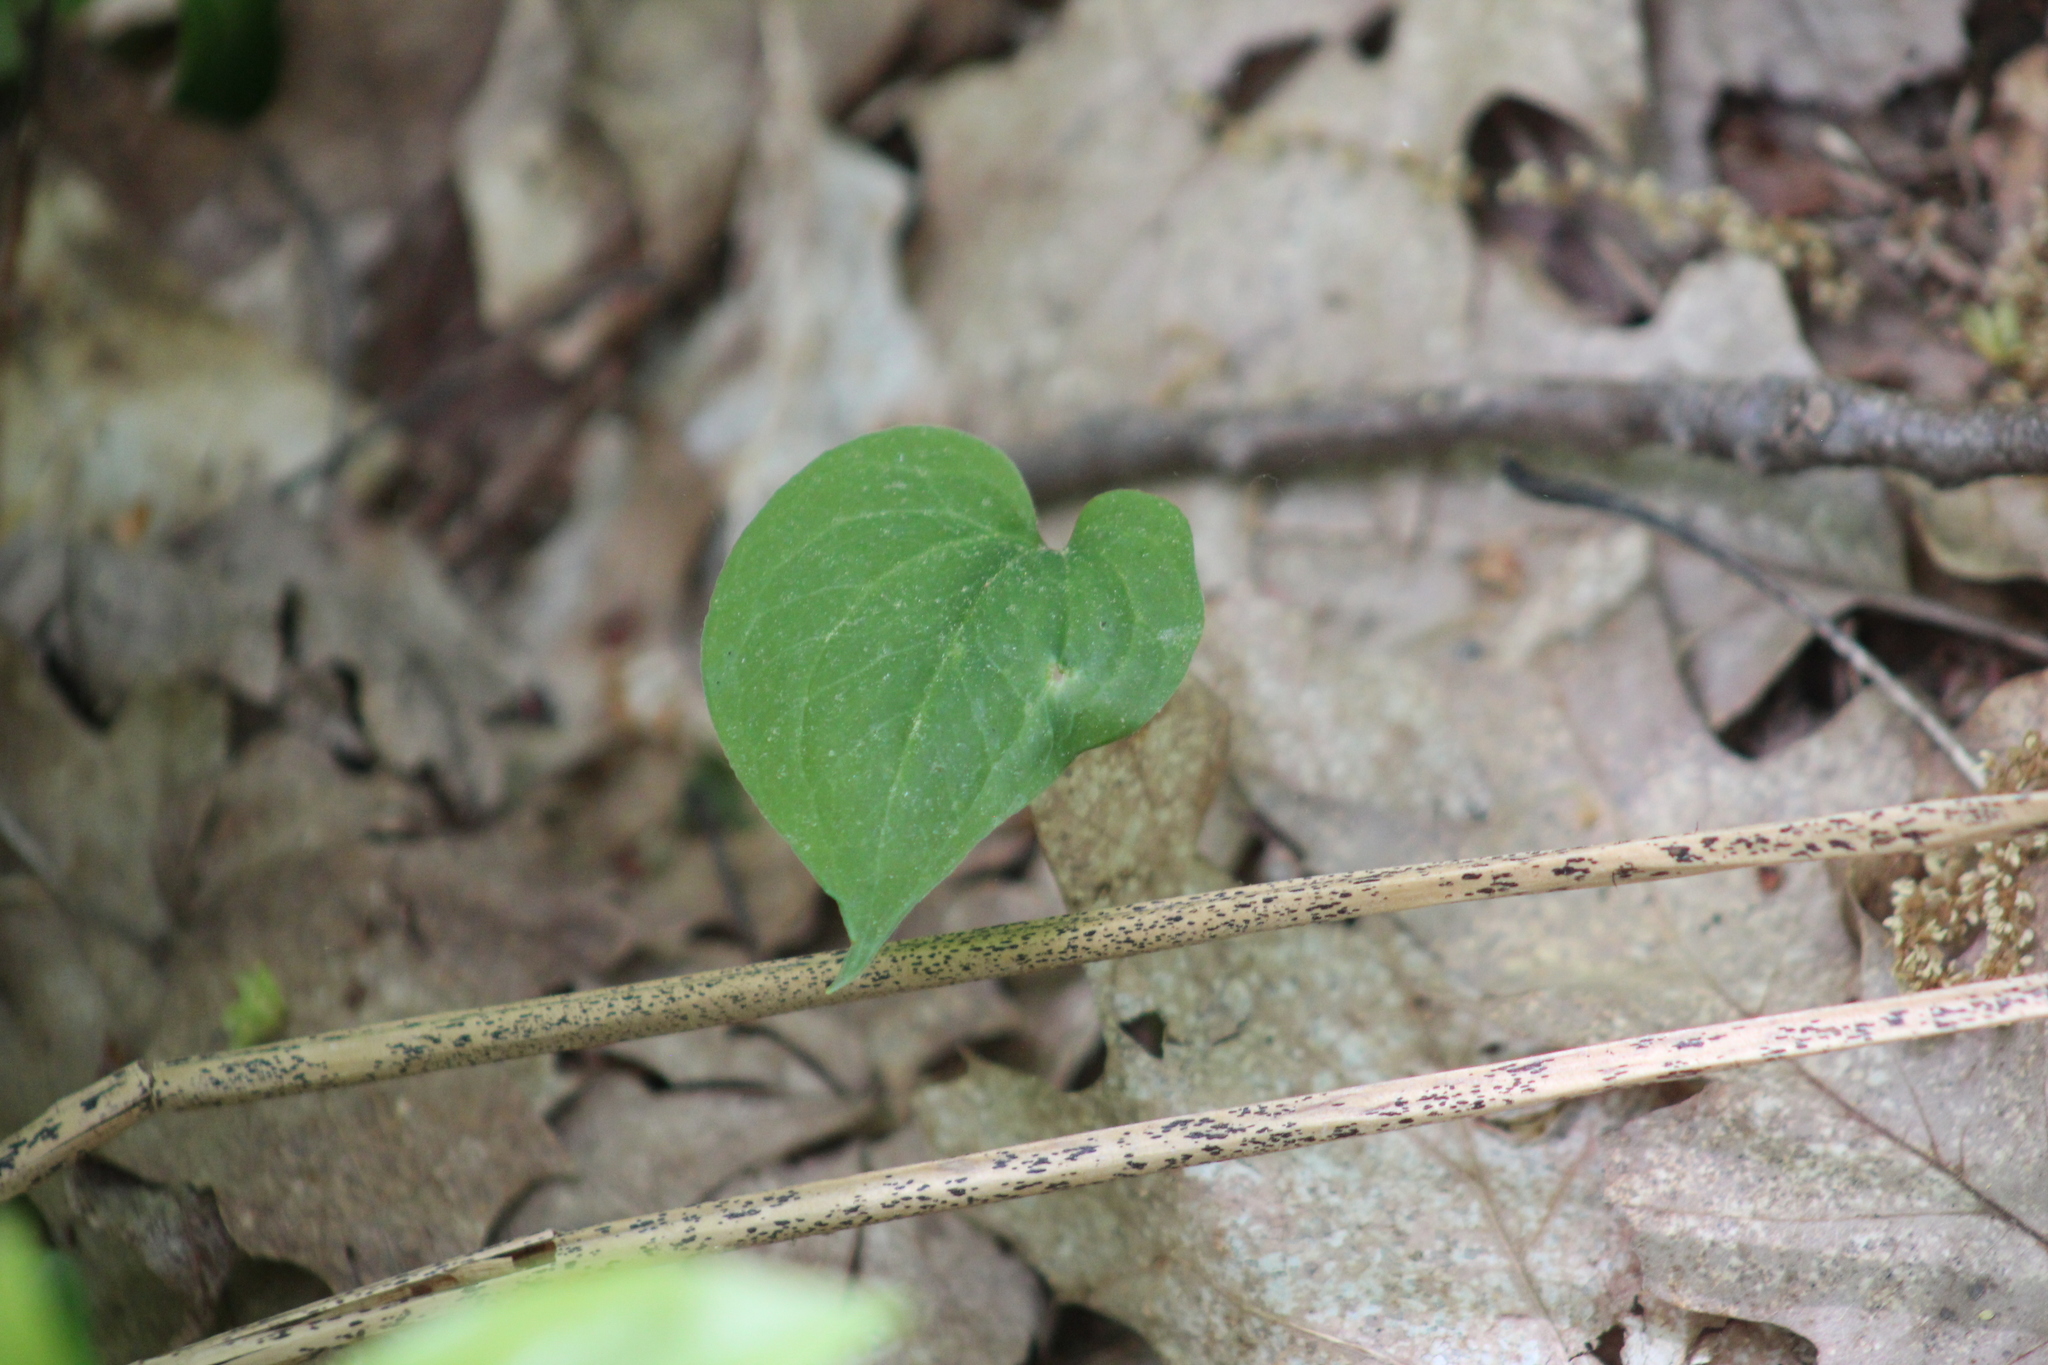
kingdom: Plantae
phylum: Tracheophyta
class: Liliopsida
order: Liliales
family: Melanthiaceae
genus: Trillium
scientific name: Trillium undulatum
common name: Paint trillium
